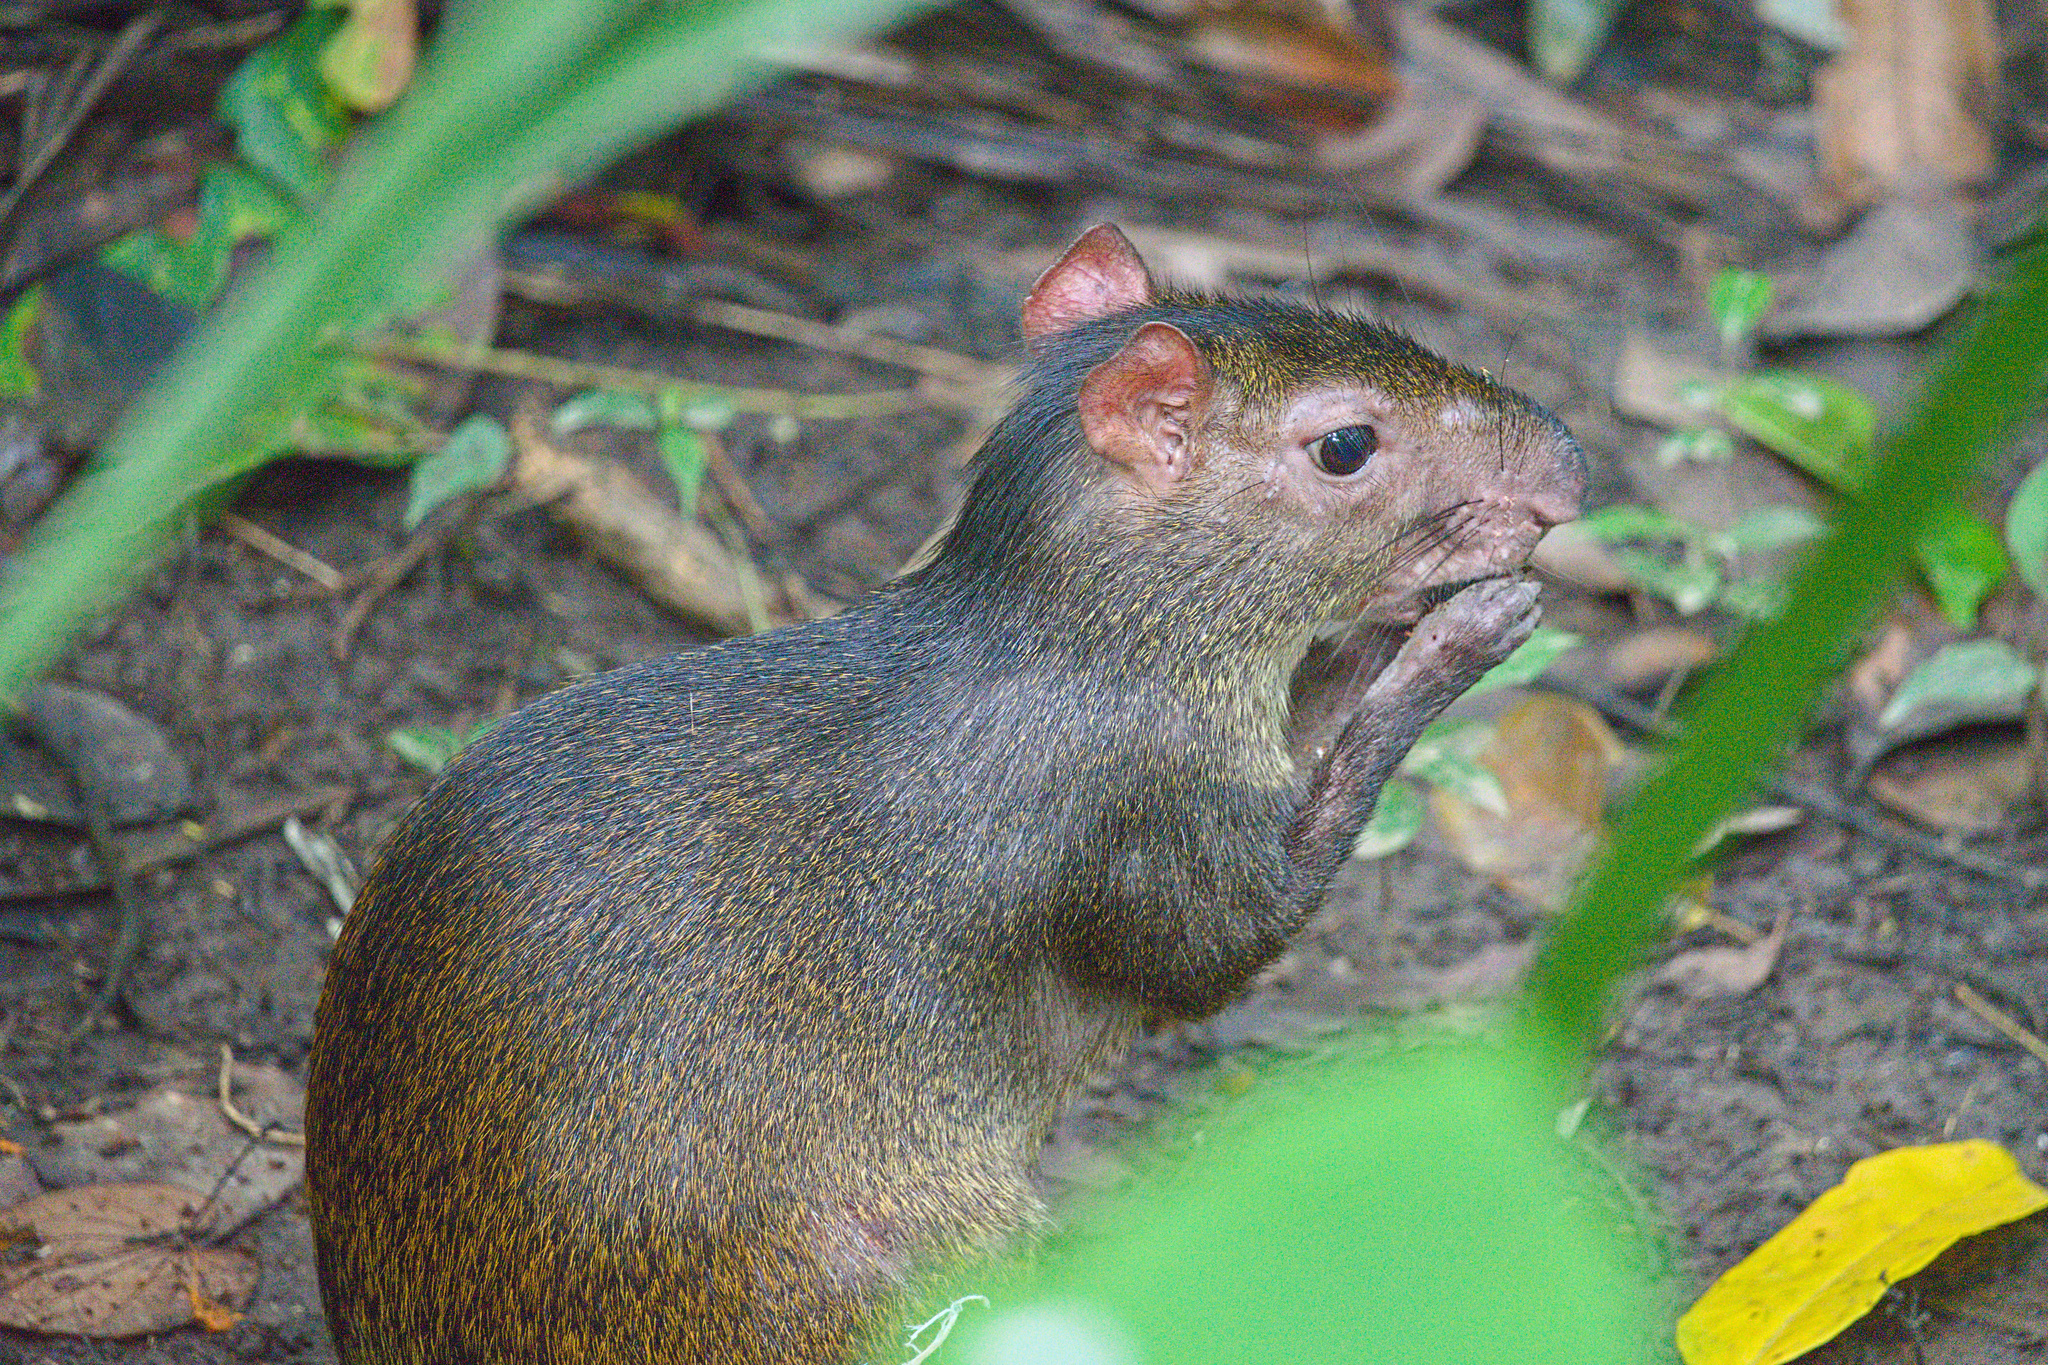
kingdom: Animalia
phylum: Chordata
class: Mammalia
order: Rodentia
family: Dasyproctidae
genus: Dasyprocta
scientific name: Dasyprocta punctata
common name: Central american agouti
